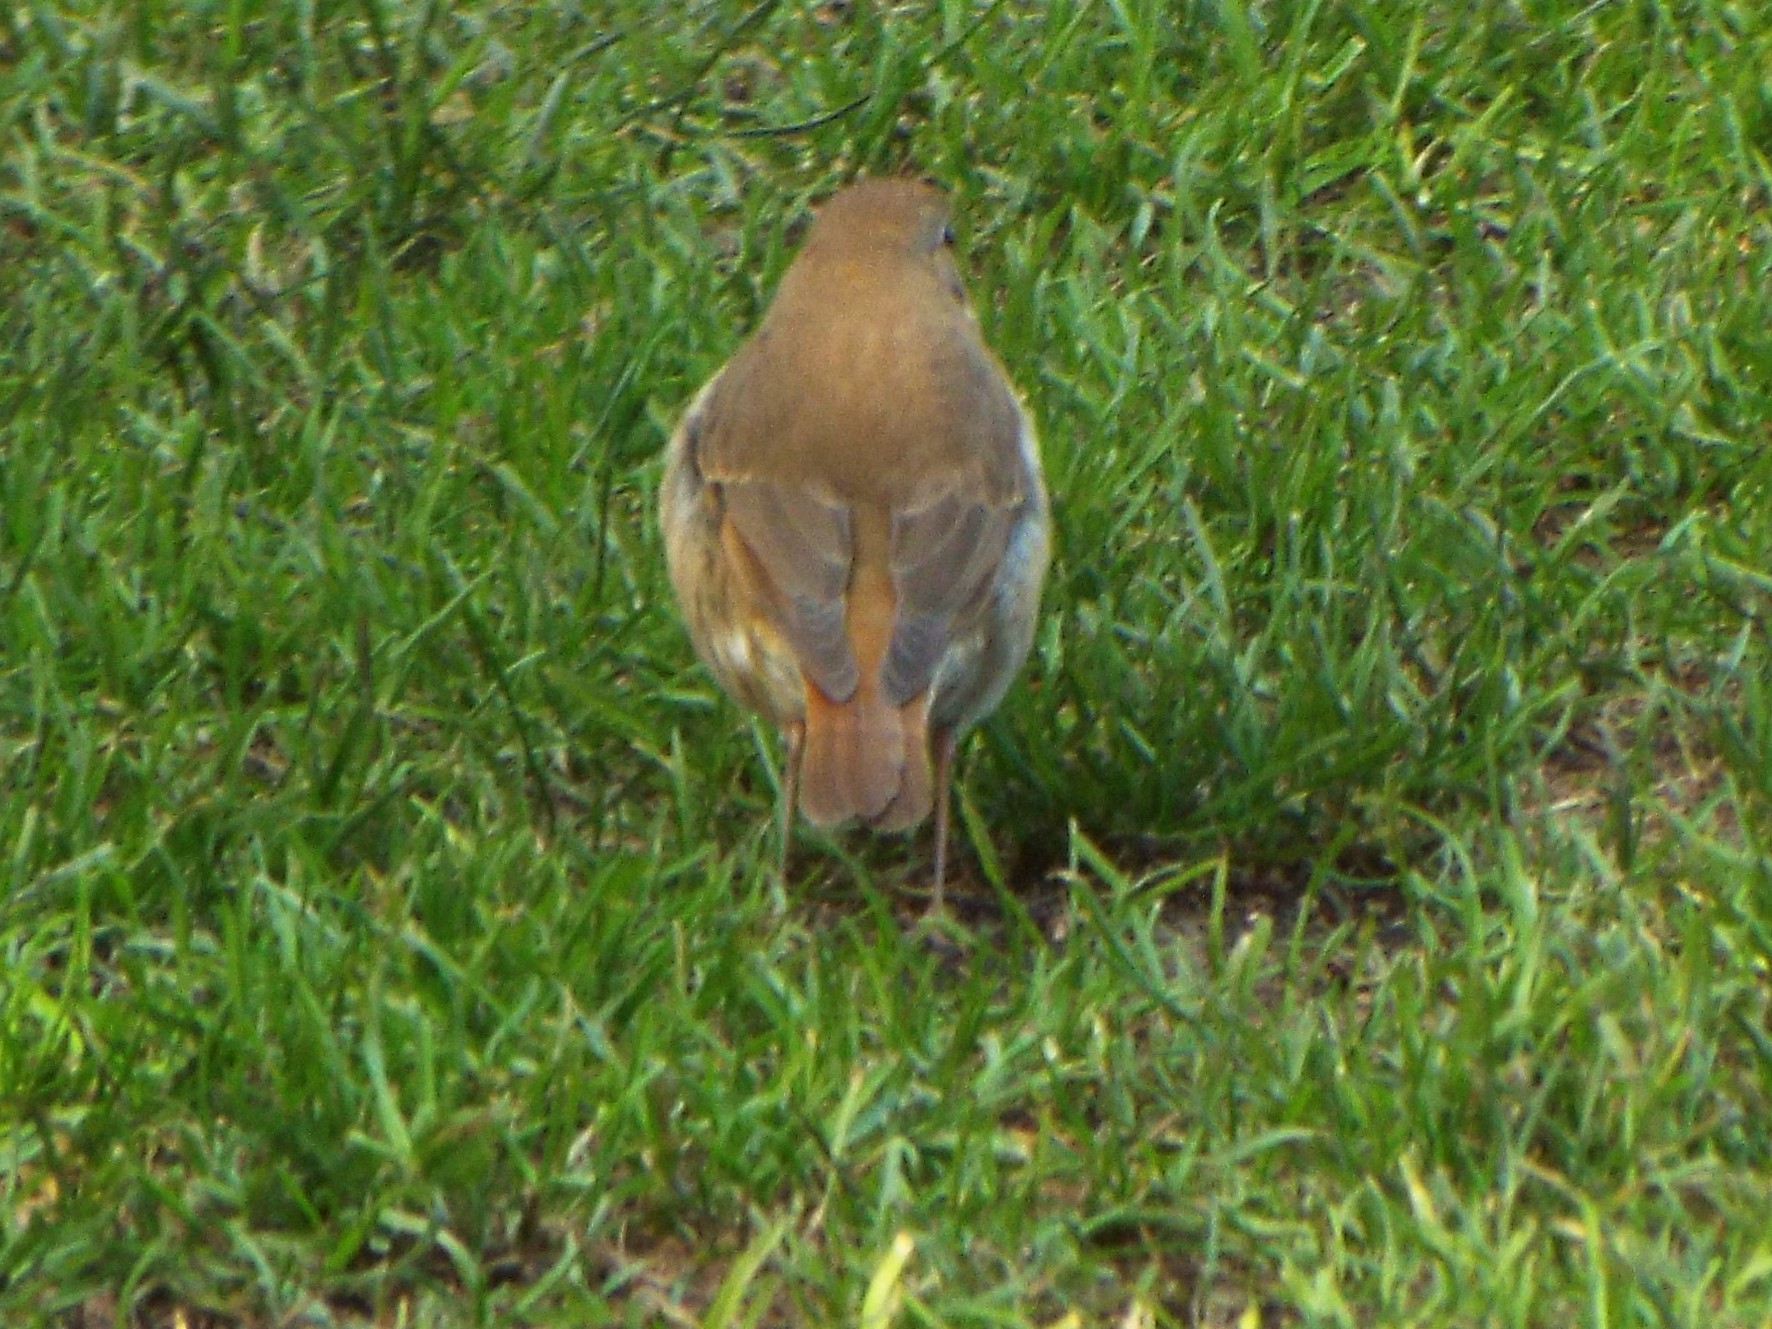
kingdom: Animalia
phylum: Chordata
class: Aves
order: Passeriformes
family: Turdidae
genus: Catharus
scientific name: Catharus guttatus
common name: Hermit thrush
